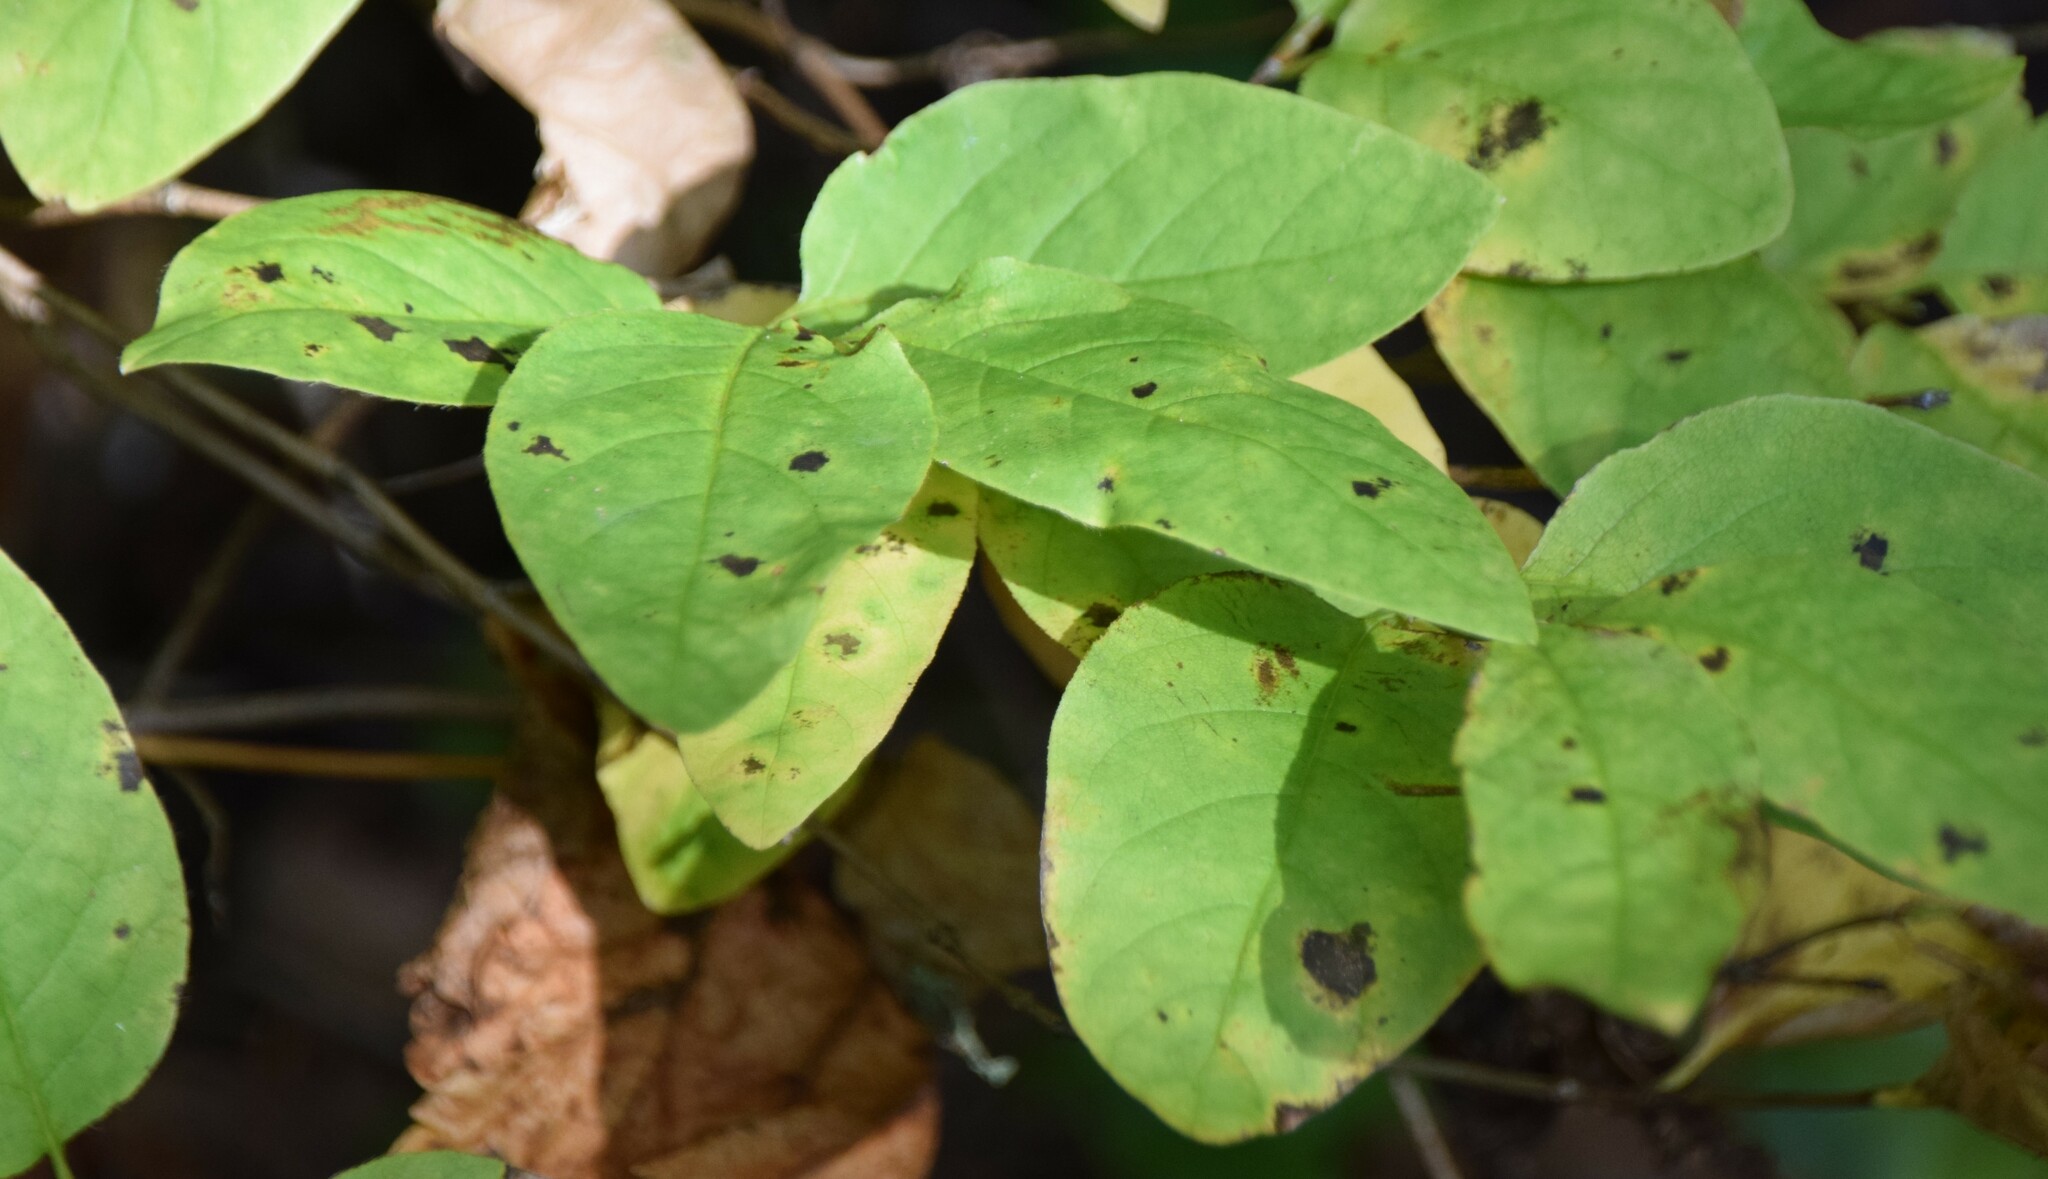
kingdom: Plantae
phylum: Tracheophyta
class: Magnoliopsida
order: Dipsacales
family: Caprifoliaceae
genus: Lonicera
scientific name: Lonicera canadensis
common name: American fly-honeysuckle
